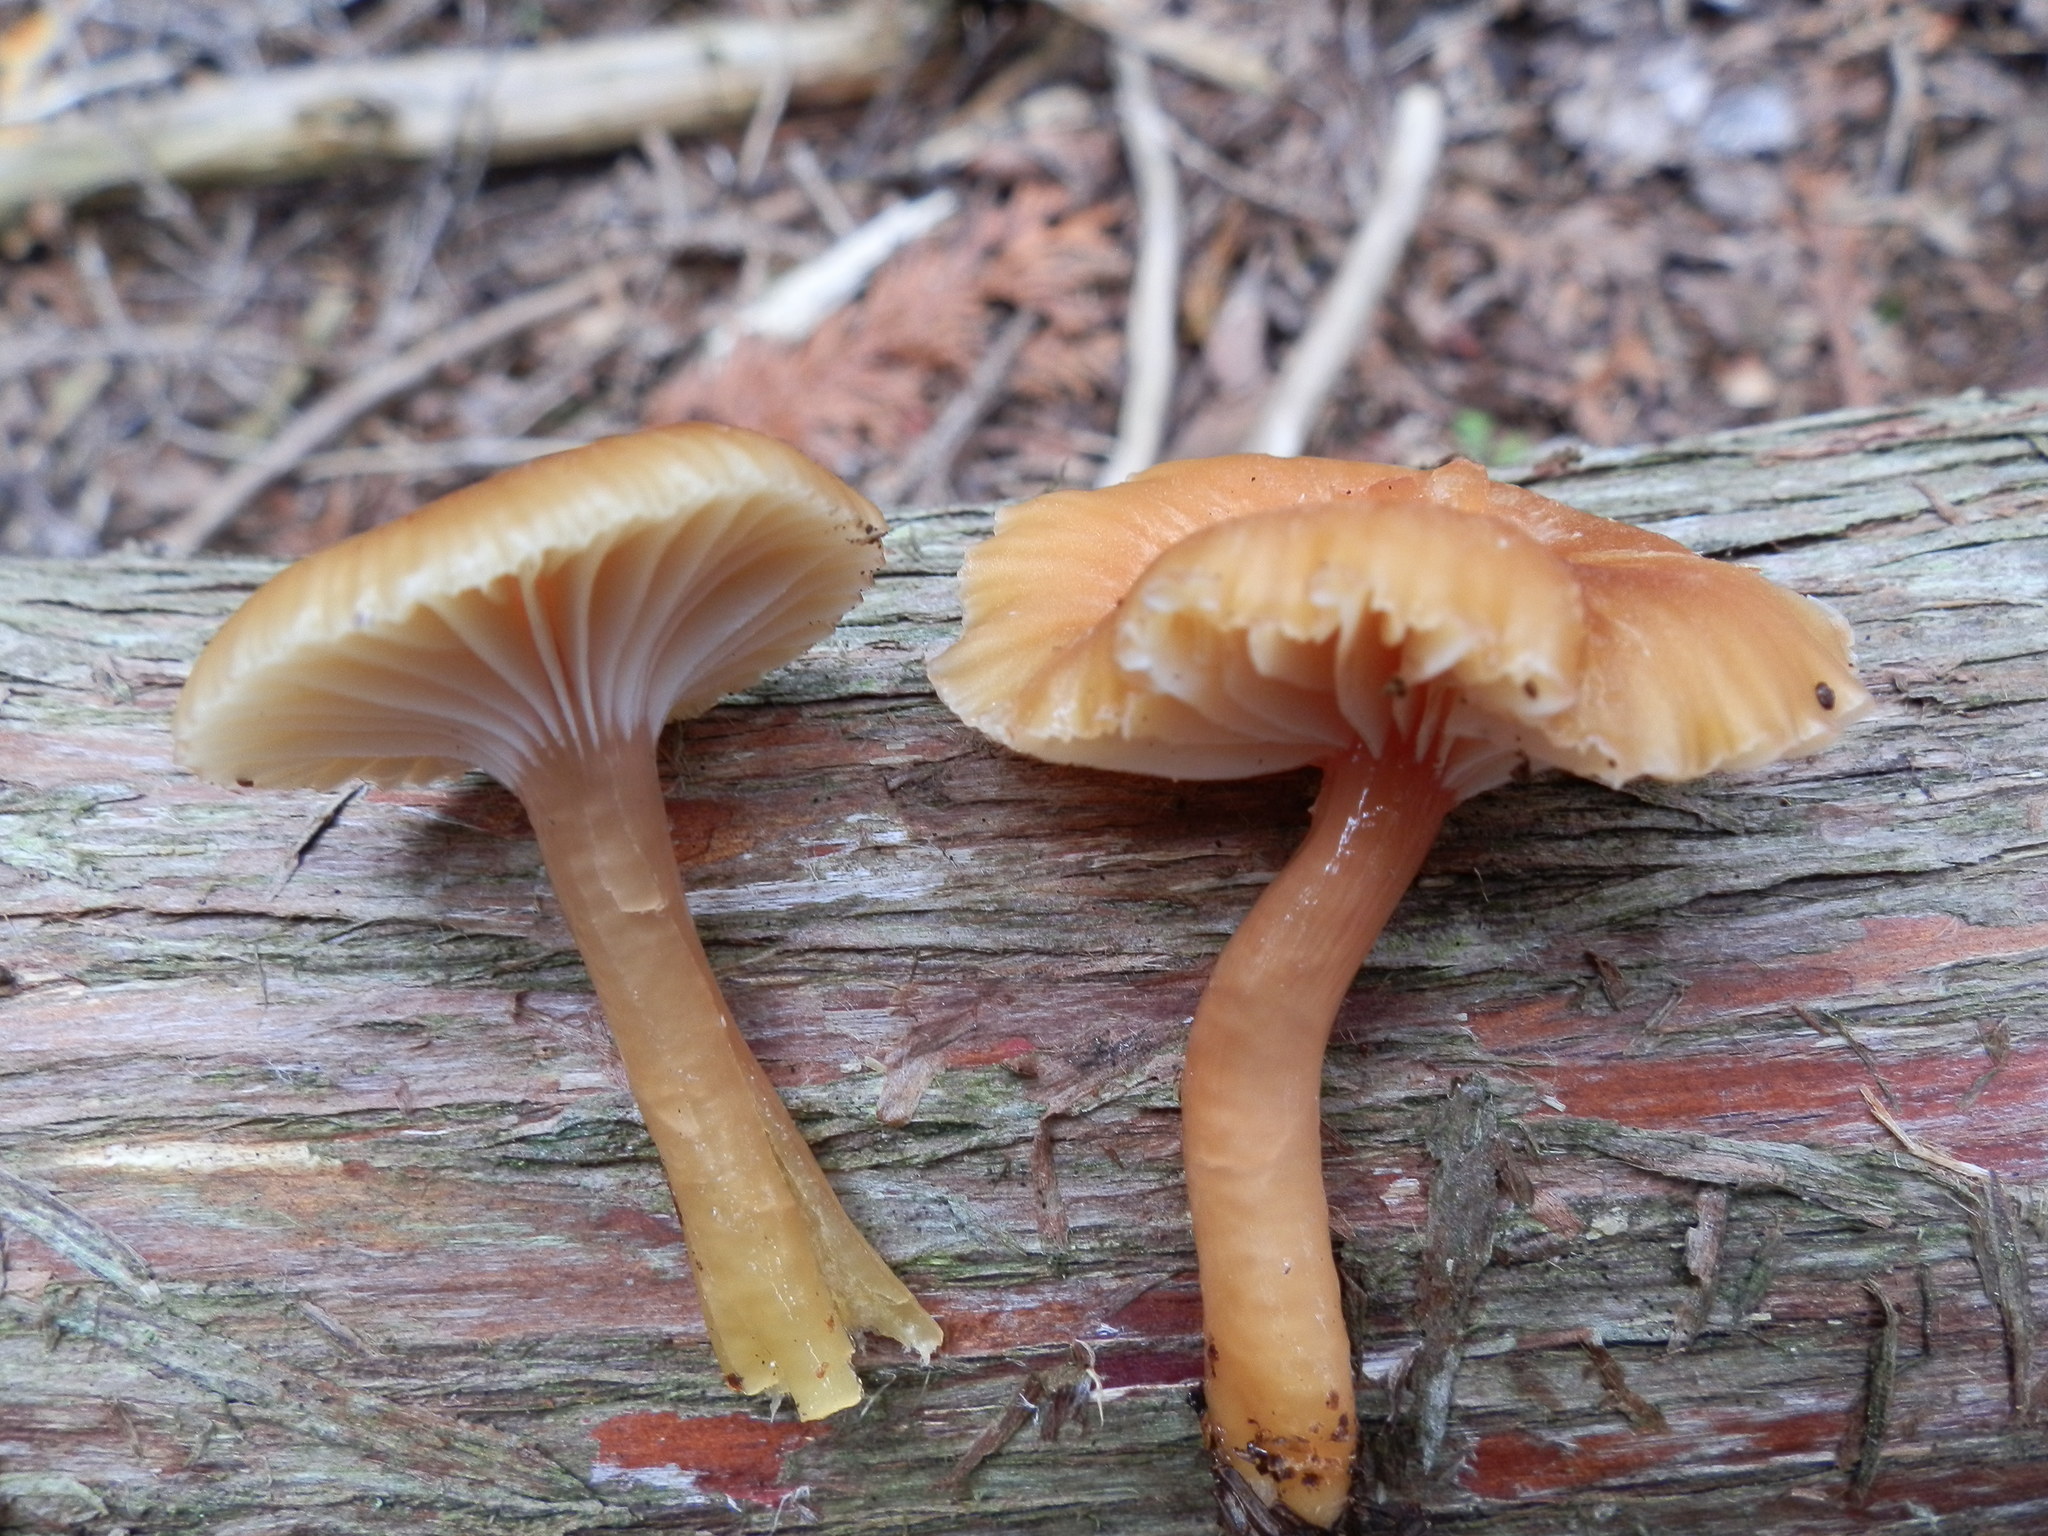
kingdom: Fungi
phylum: Basidiomycota
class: Agaricomycetes
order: Agaricales
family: Hygrophoraceae
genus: Gliophorus
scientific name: Gliophorus laetus
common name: Heath waxcap
